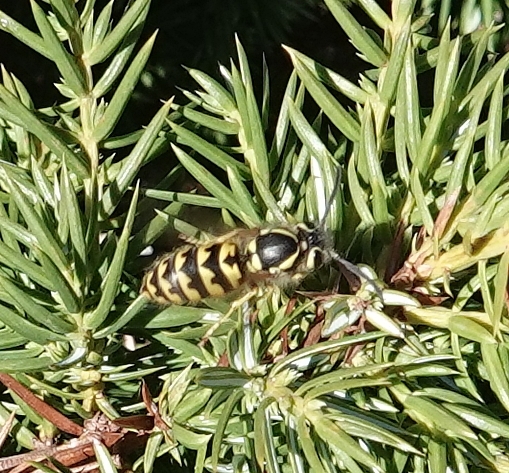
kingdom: Animalia
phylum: Arthropoda
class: Insecta
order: Hymenoptera
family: Vespidae
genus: Vespula
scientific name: Vespula pensylvanica
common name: Western yellowjacket
